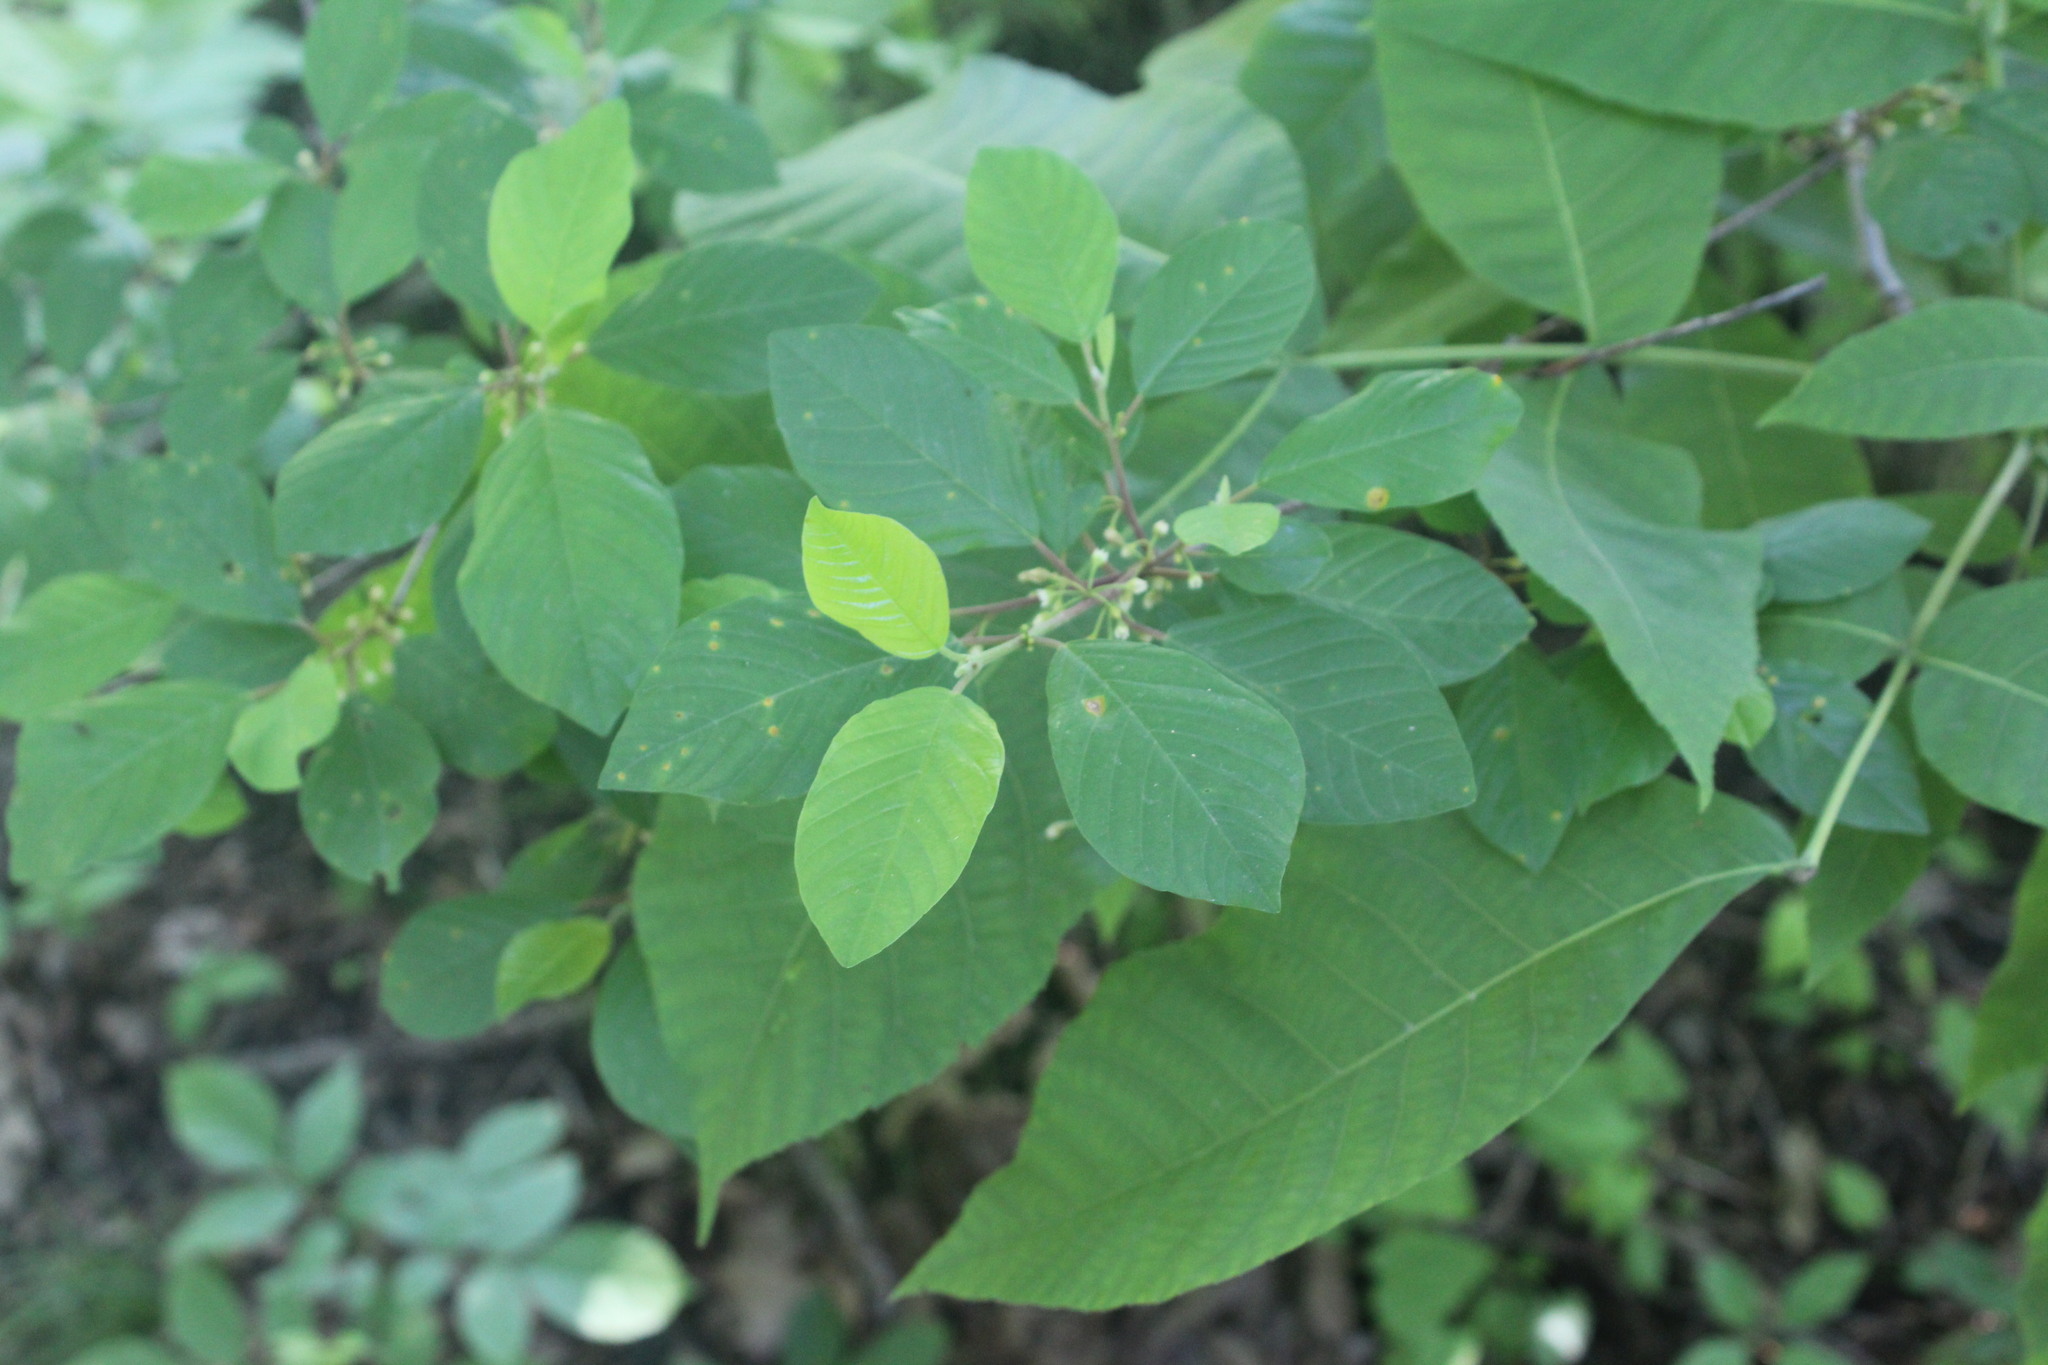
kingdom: Plantae
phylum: Tracheophyta
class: Magnoliopsida
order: Rosales
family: Rhamnaceae
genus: Frangula
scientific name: Frangula alnus
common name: Alder buckthorn
